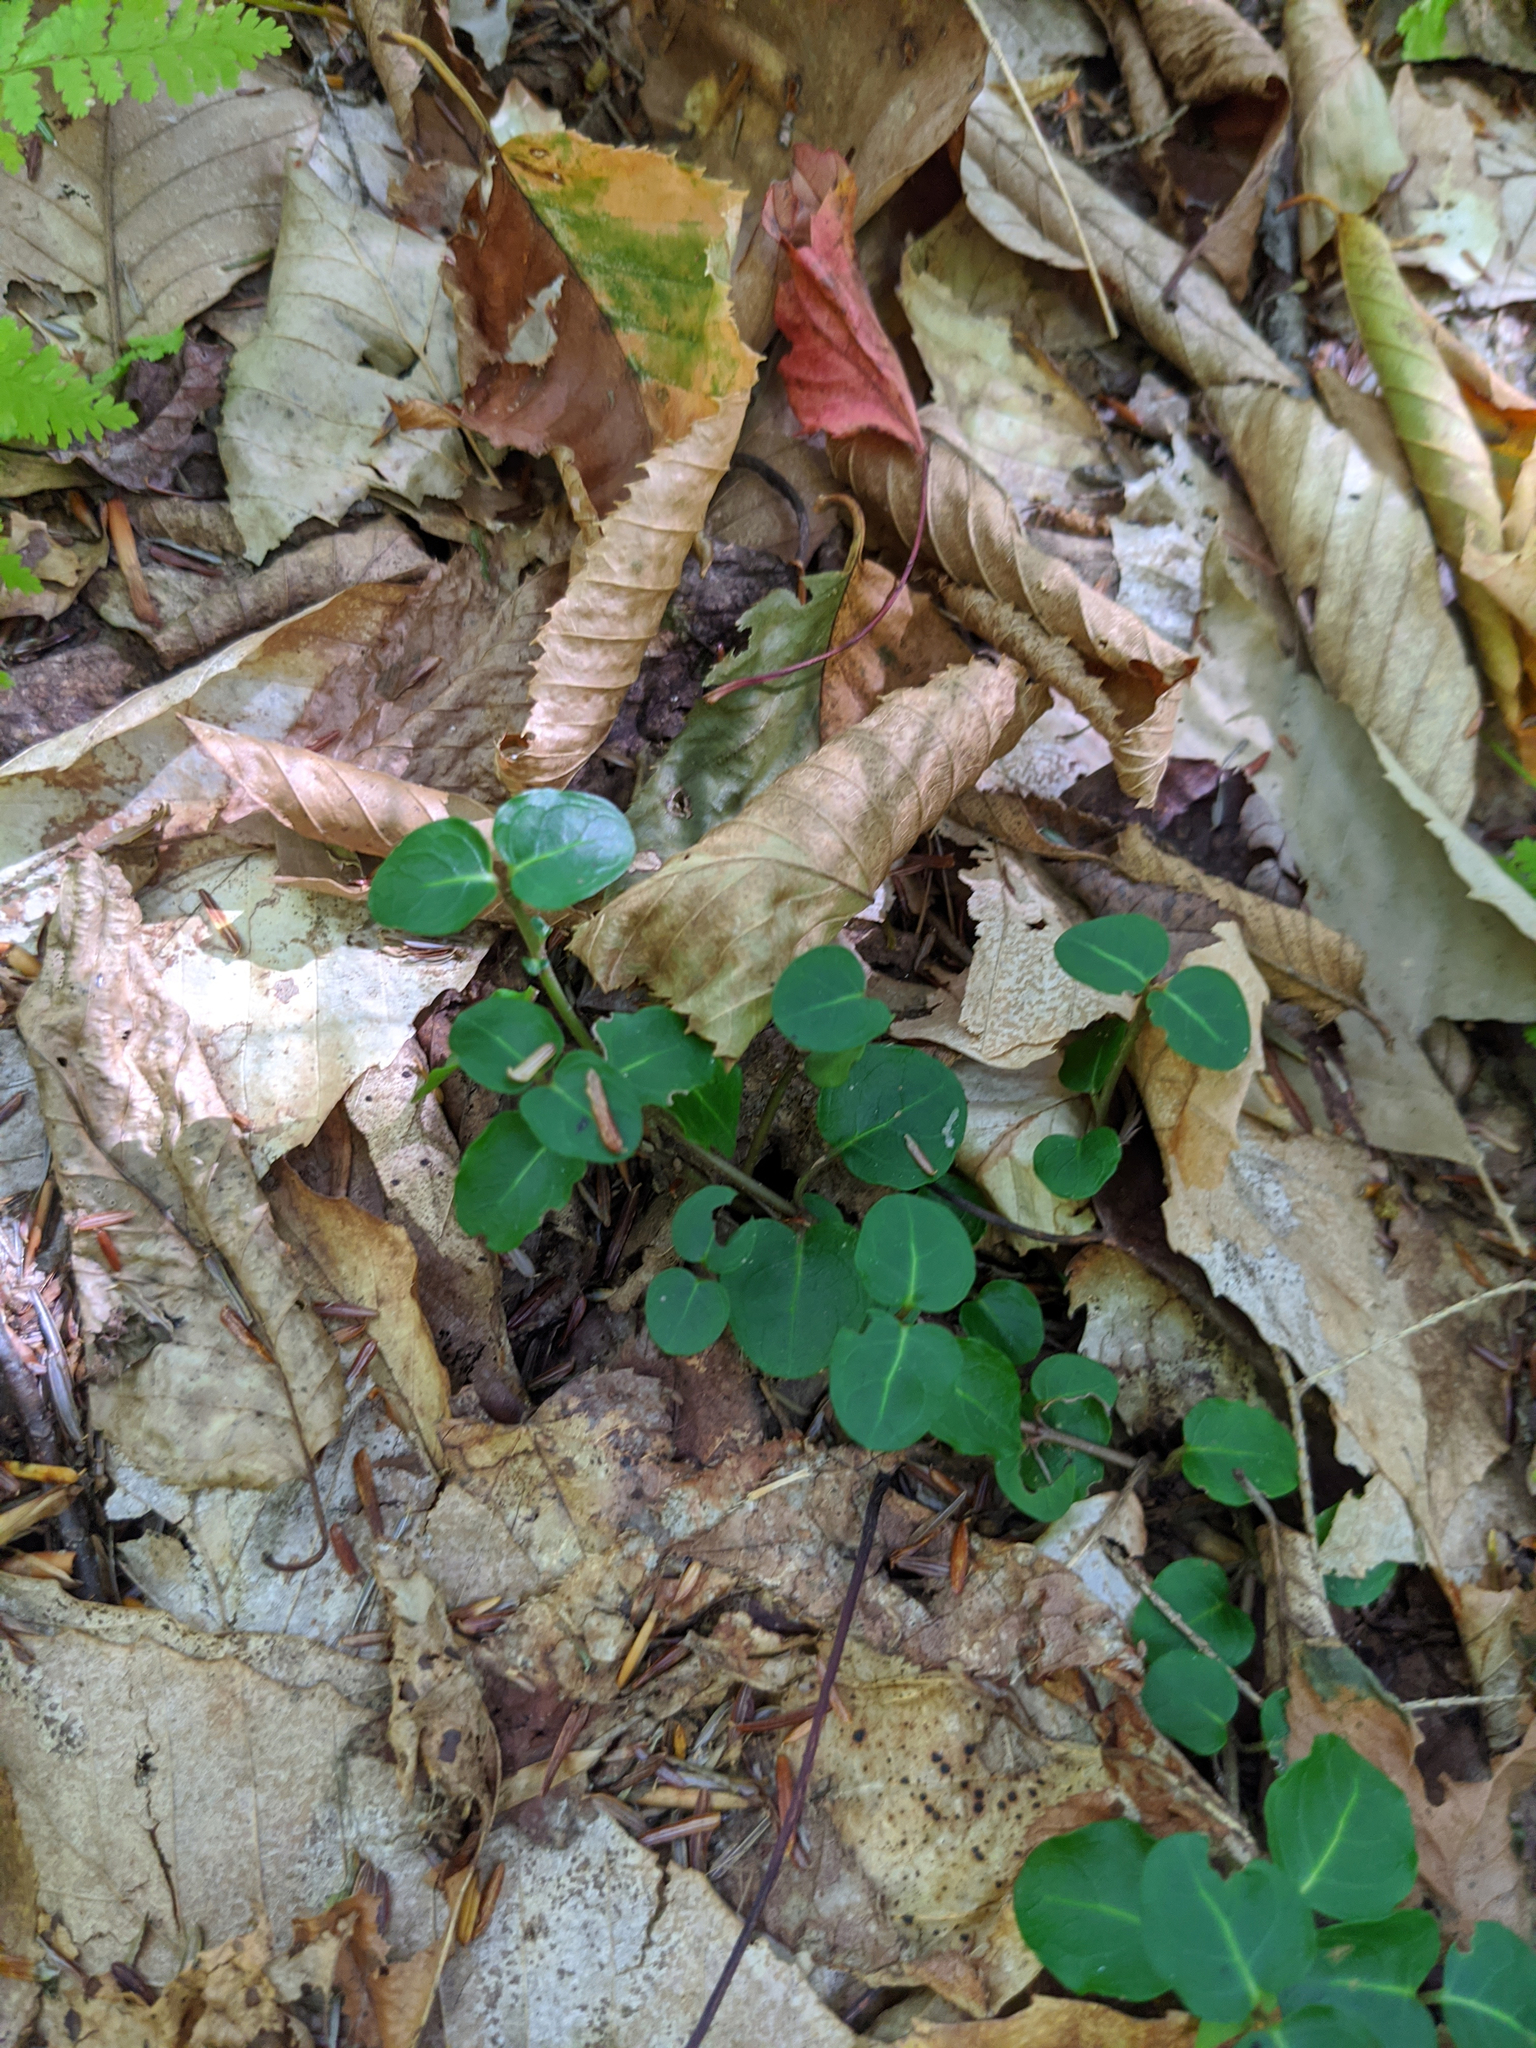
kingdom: Plantae
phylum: Tracheophyta
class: Magnoliopsida
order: Gentianales
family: Rubiaceae
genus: Mitchella
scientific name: Mitchella repens
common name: Partridge-berry
